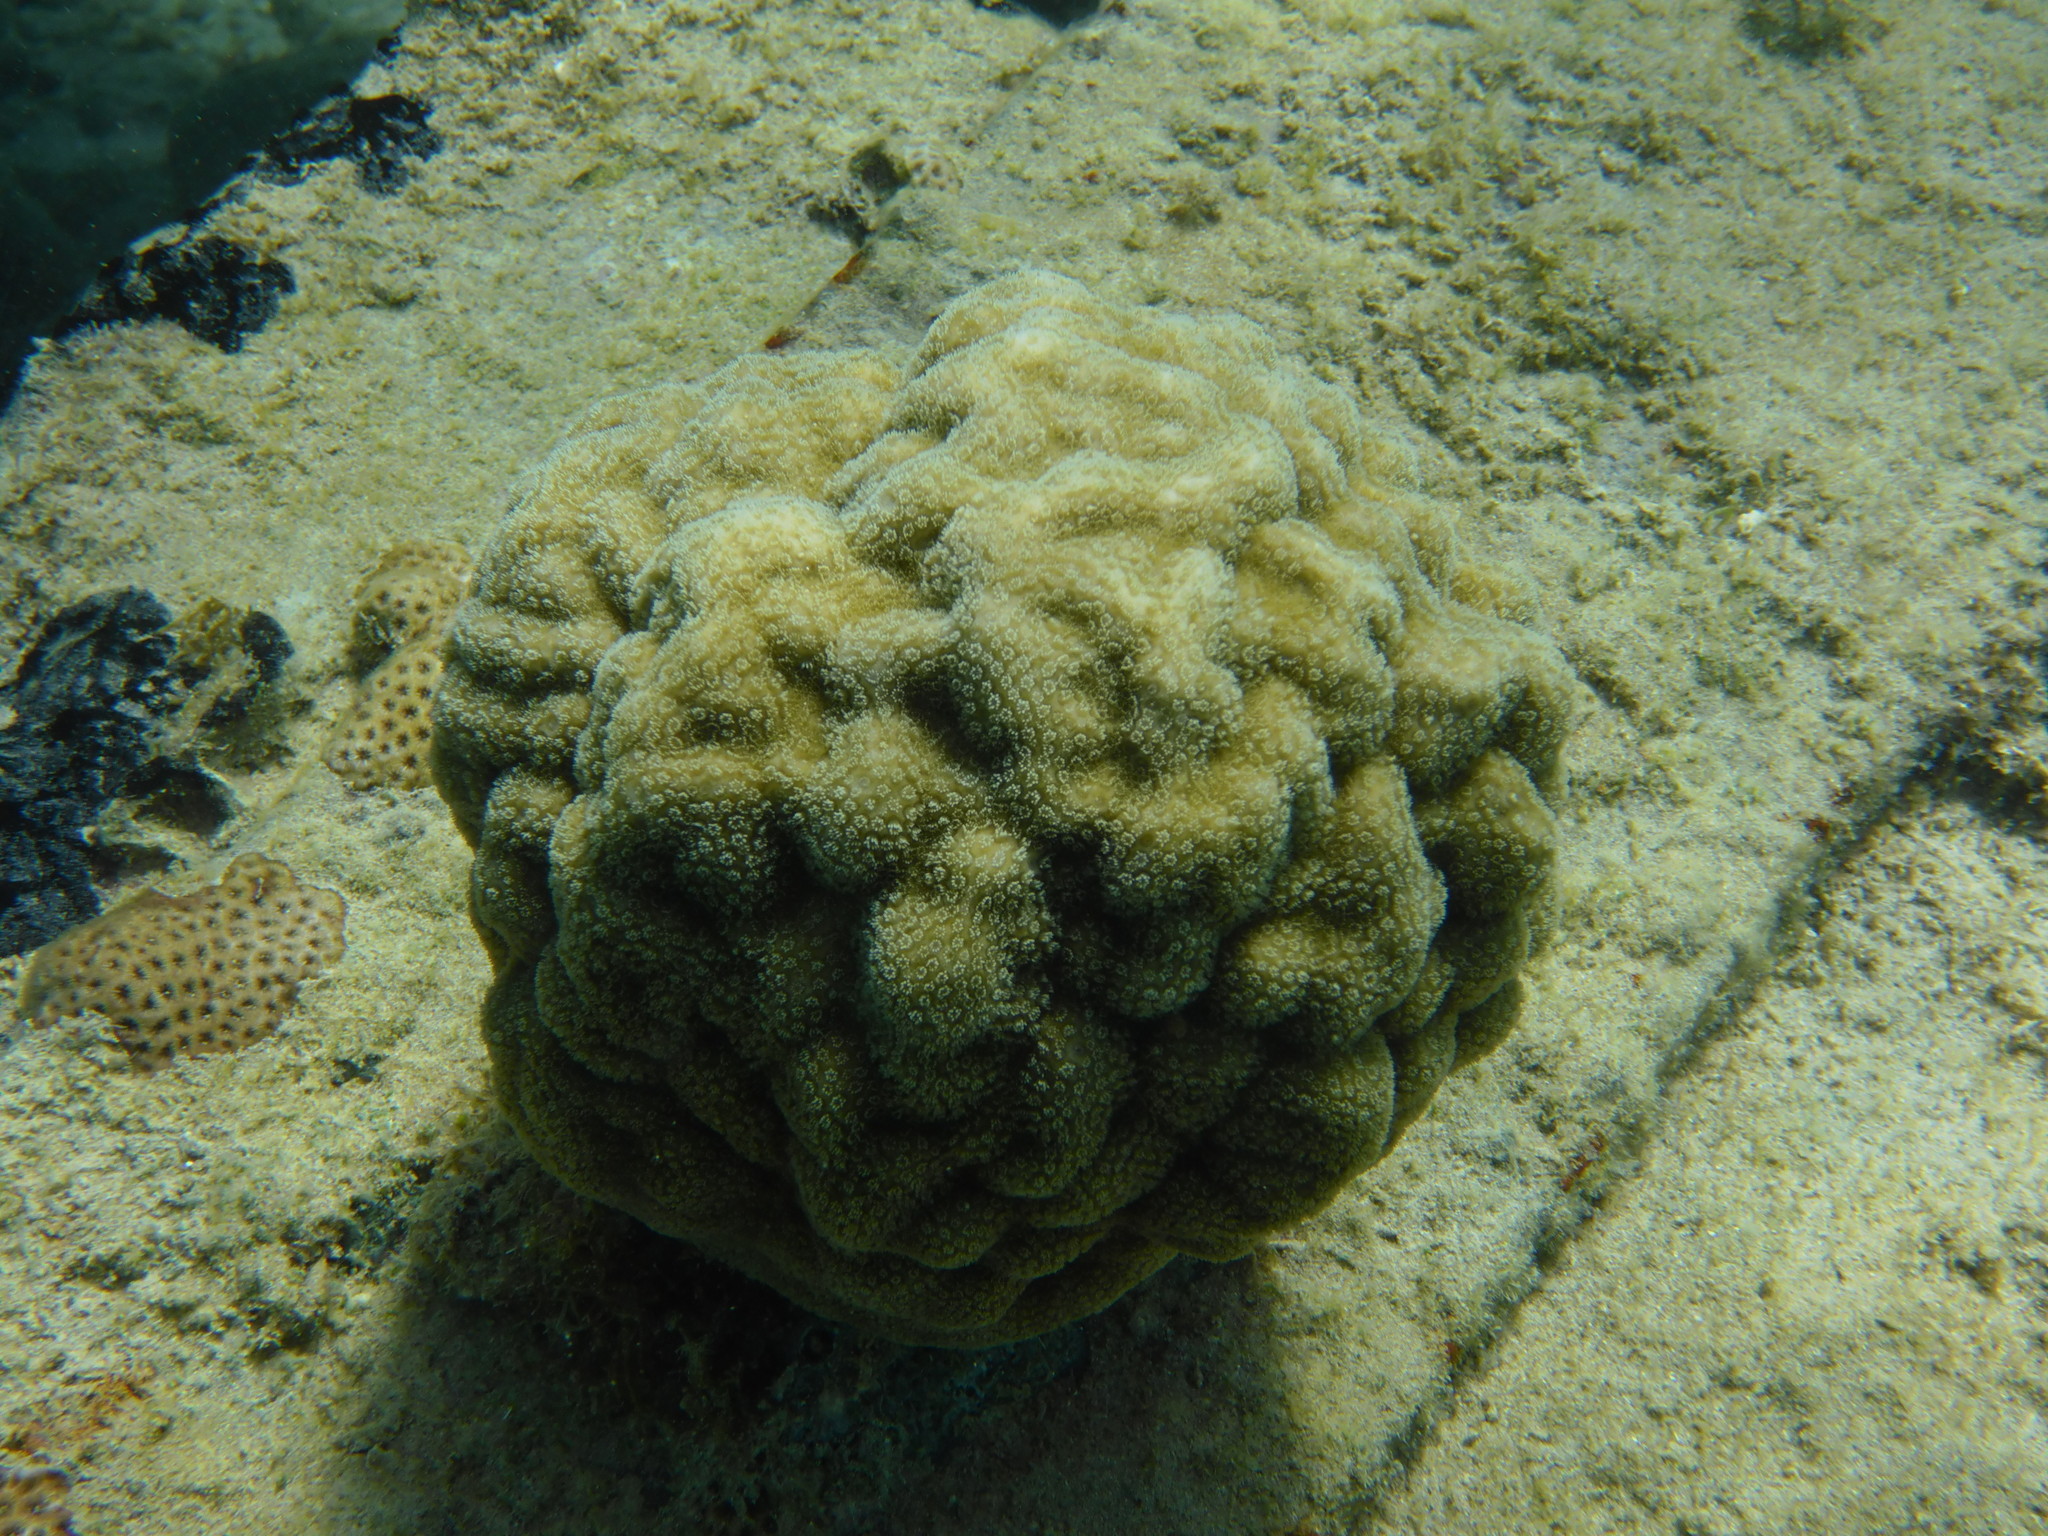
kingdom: Animalia
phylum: Cnidaria
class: Anthozoa
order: Scleractinia
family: Poritidae
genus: Porites
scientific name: Porites astreoides
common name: Mustard hill coral
